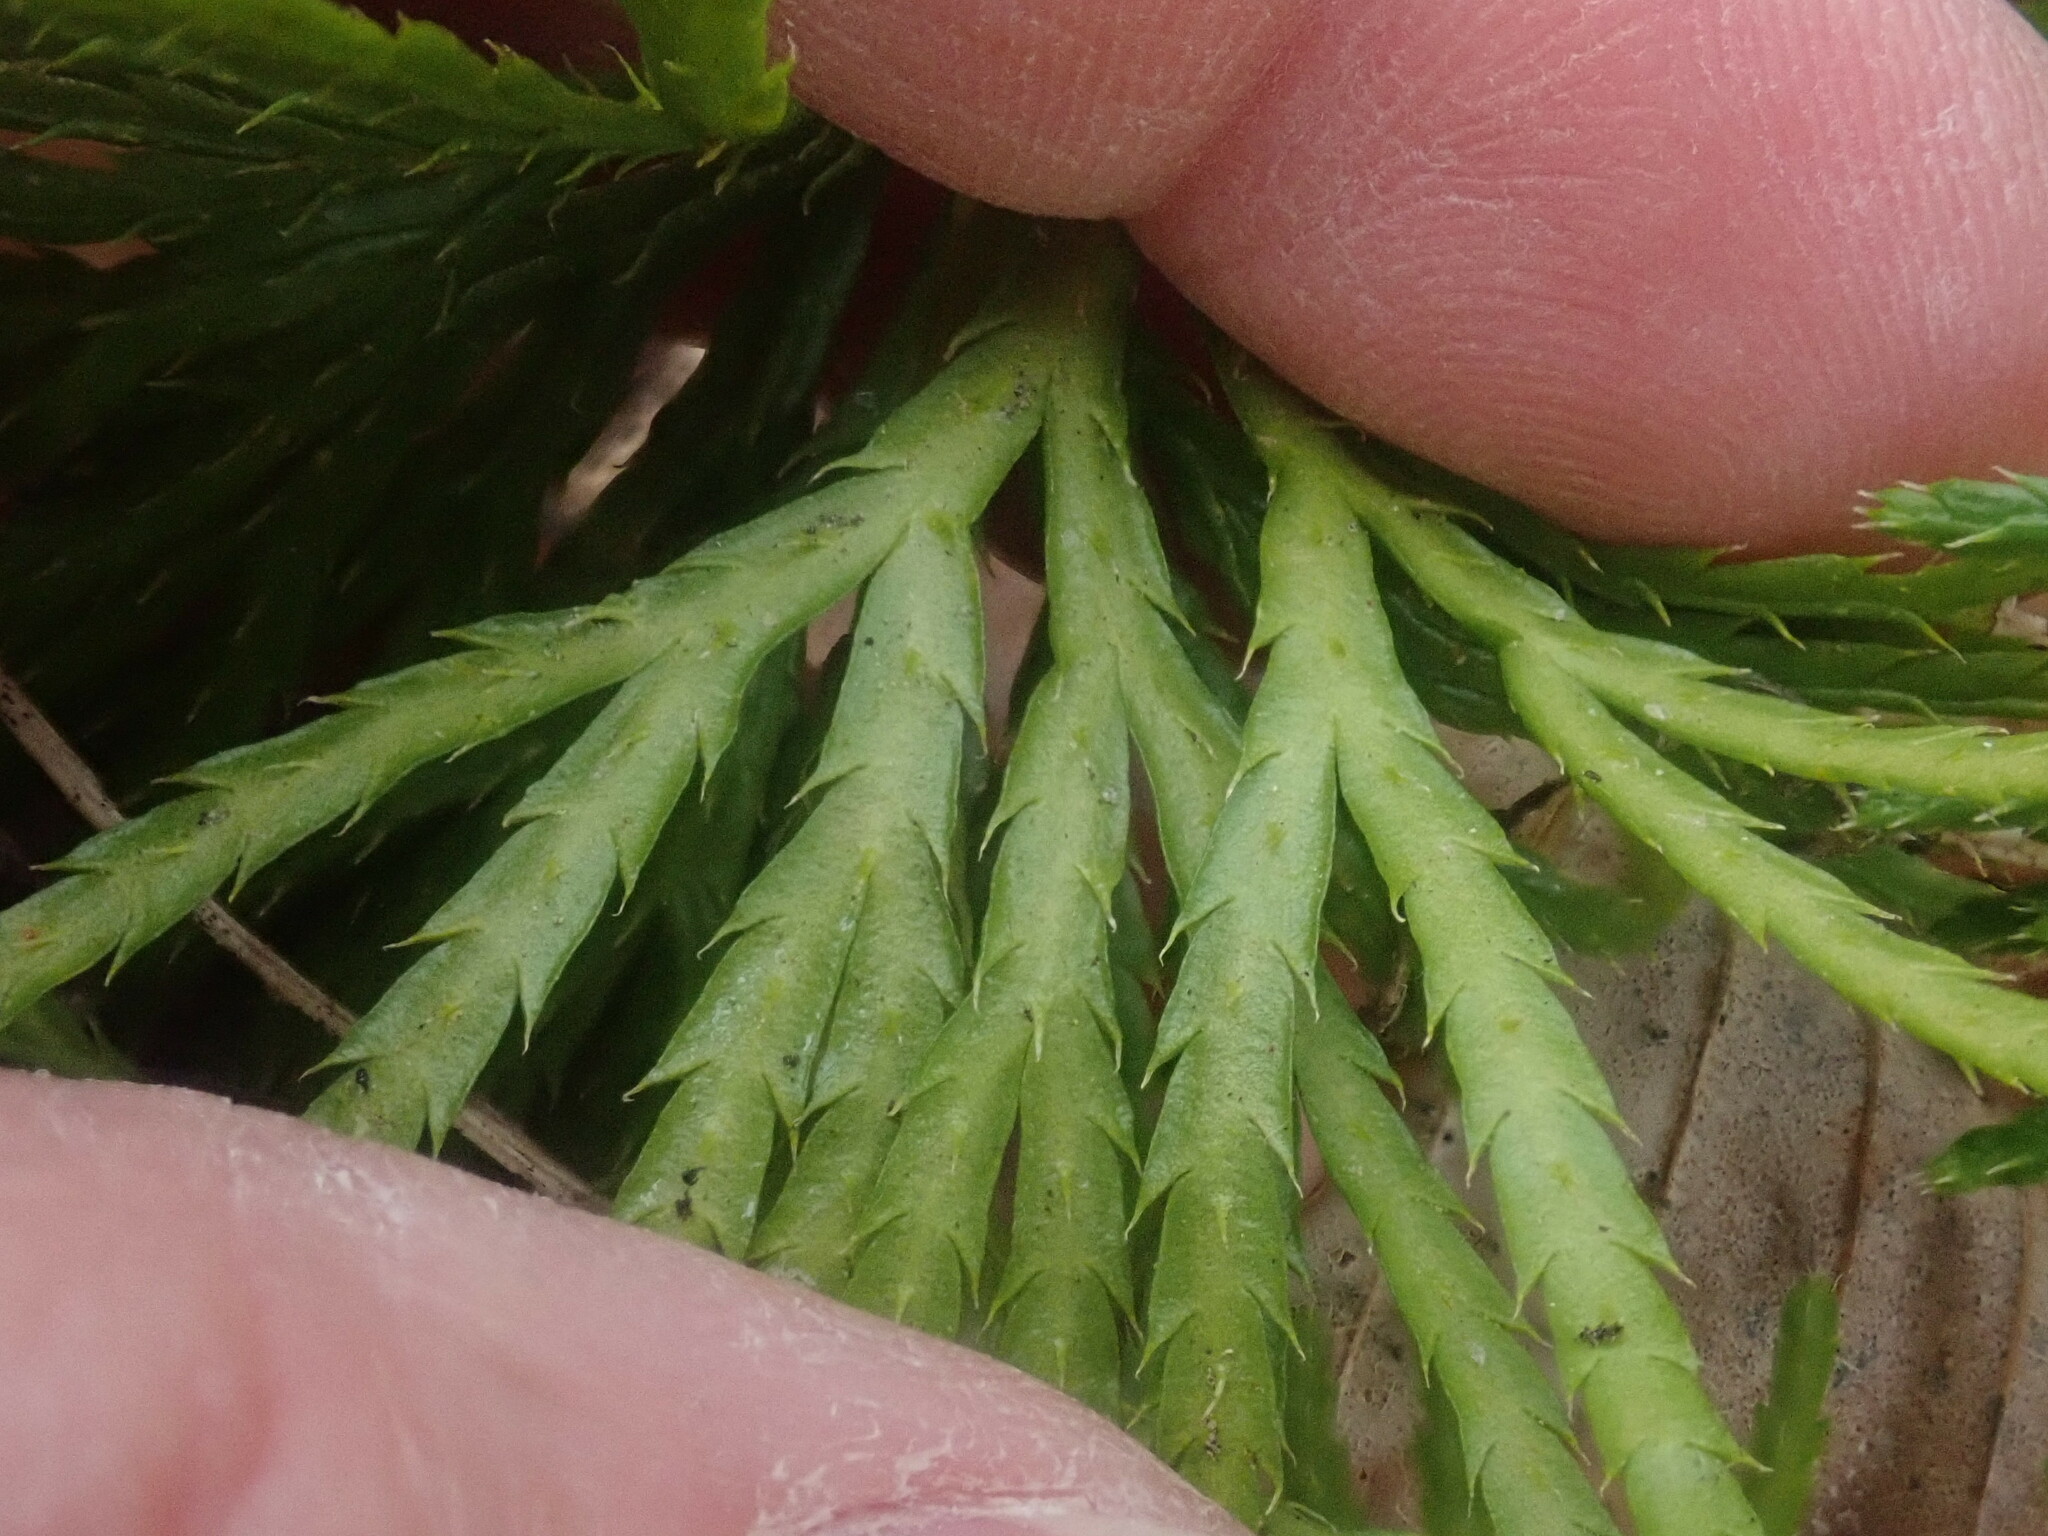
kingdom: Plantae
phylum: Tracheophyta
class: Lycopodiopsida
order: Lycopodiales
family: Lycopodiaceae
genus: Diphasiastrum
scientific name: Diphasiastrum digitatum
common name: Southern running-pine
